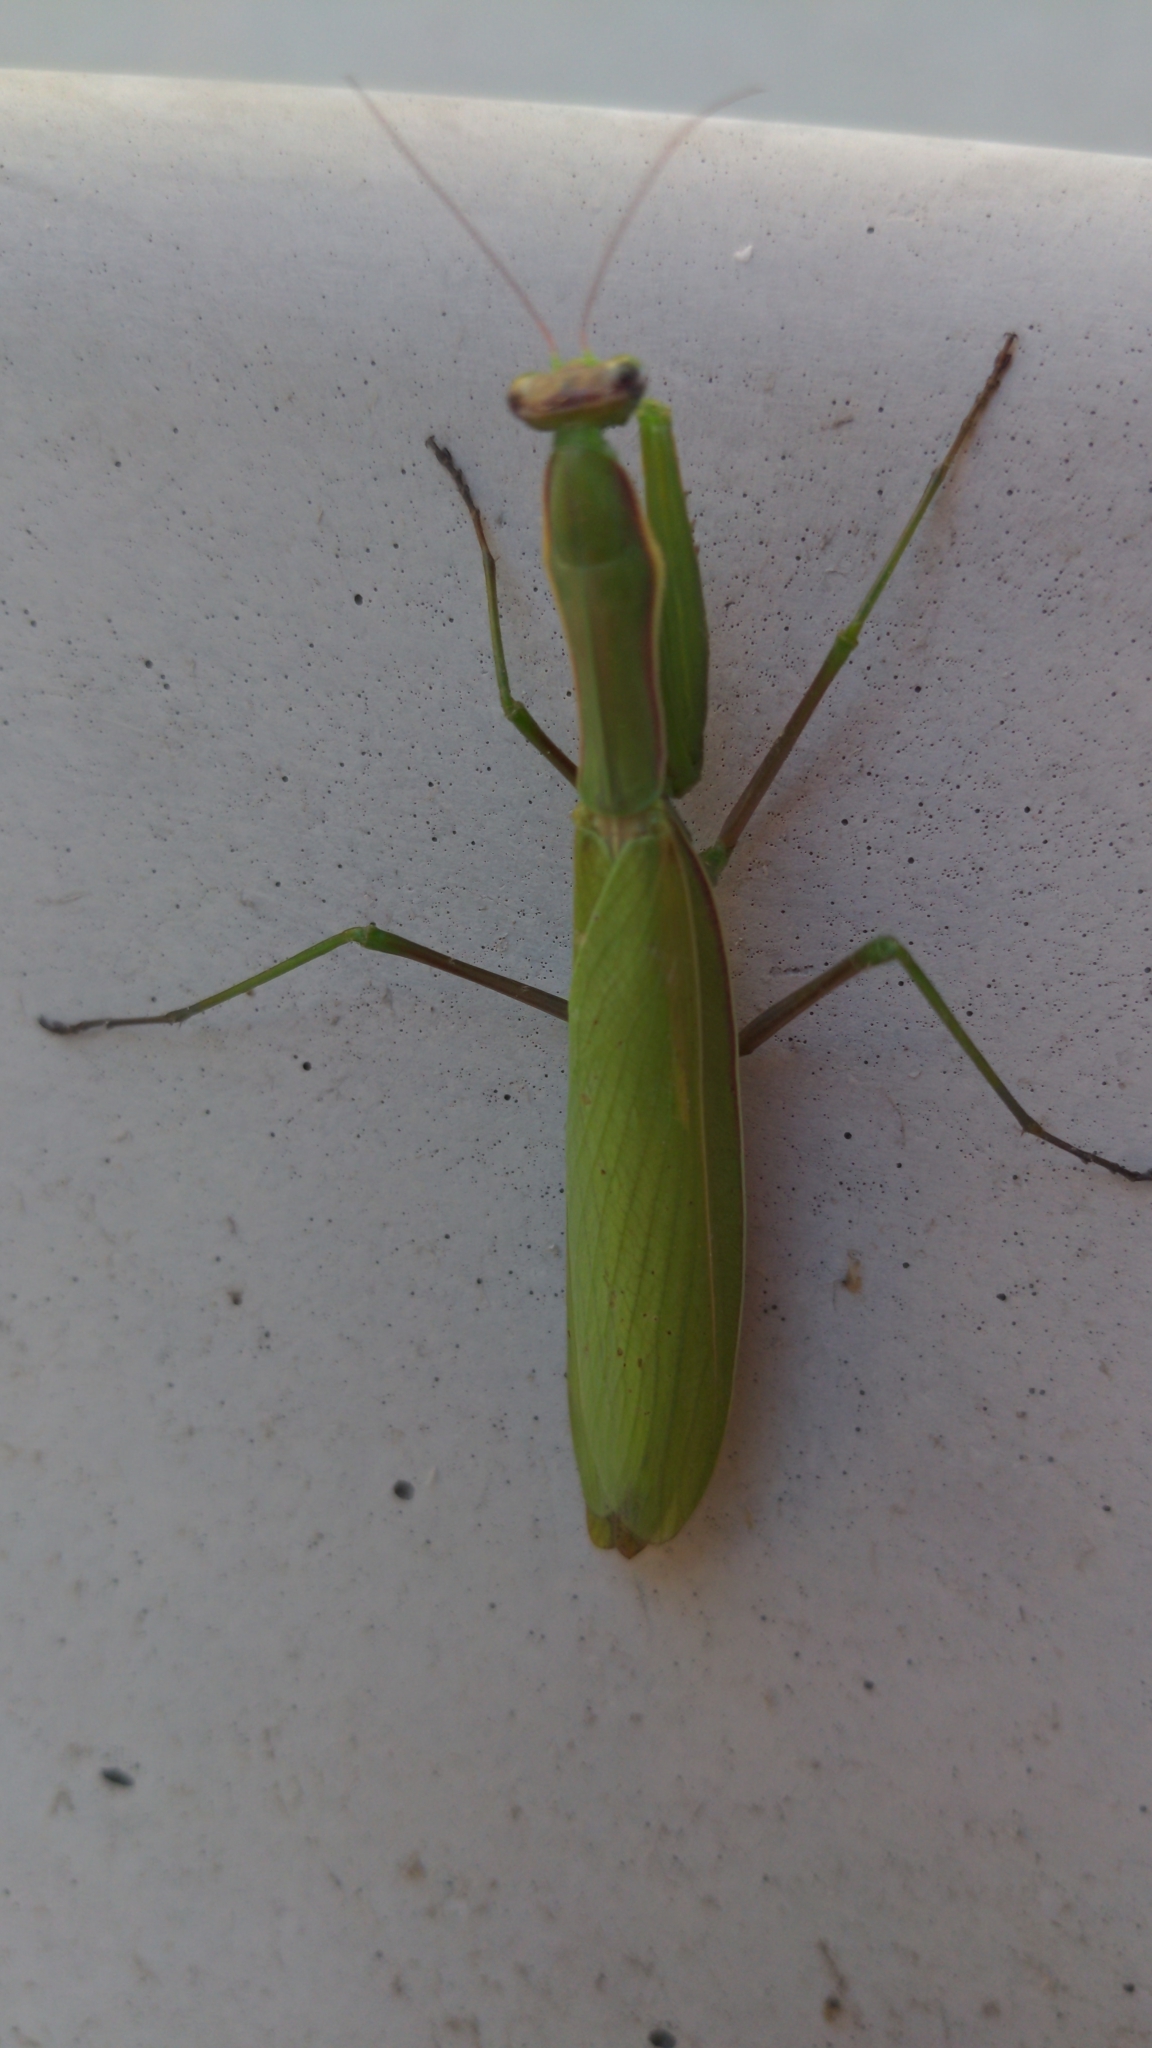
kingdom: Animalia
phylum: Arthropoda
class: Insecta
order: Mantodea
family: Mantidae
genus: Mantis
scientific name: Mantis religiosa
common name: Praying mantis
